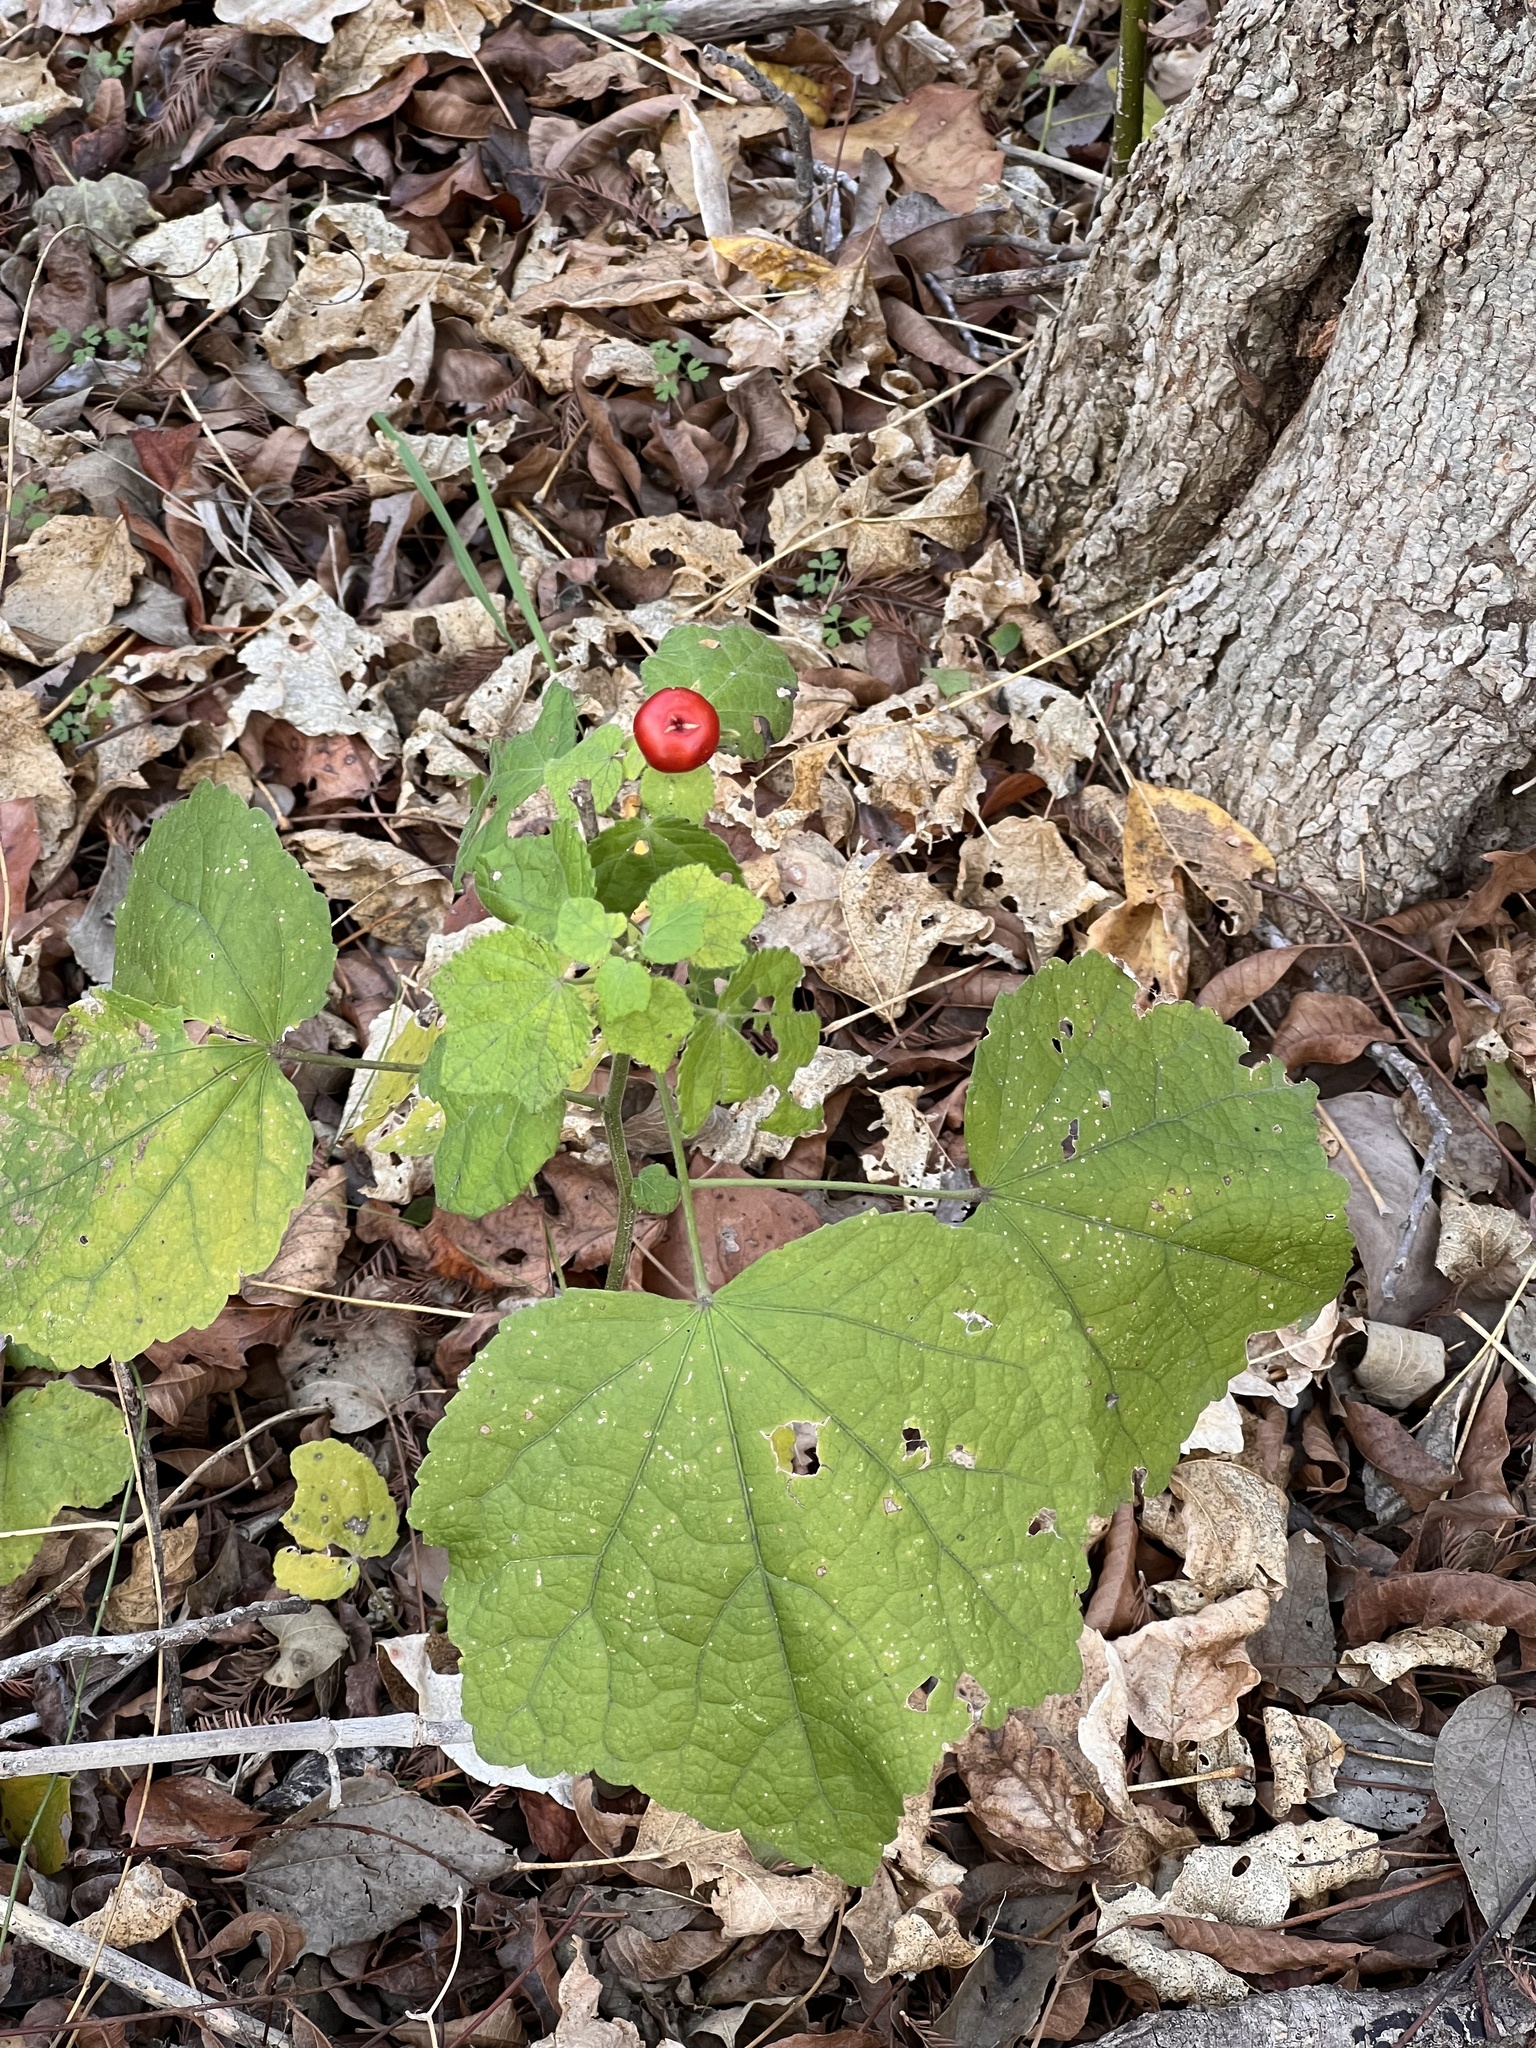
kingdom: Plantae
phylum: Tracheophyta
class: Magnoliopsida
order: Malvales
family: Malvaceae
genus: Malvaviscus
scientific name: Malvaviscus arboreus
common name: Wax mallow
